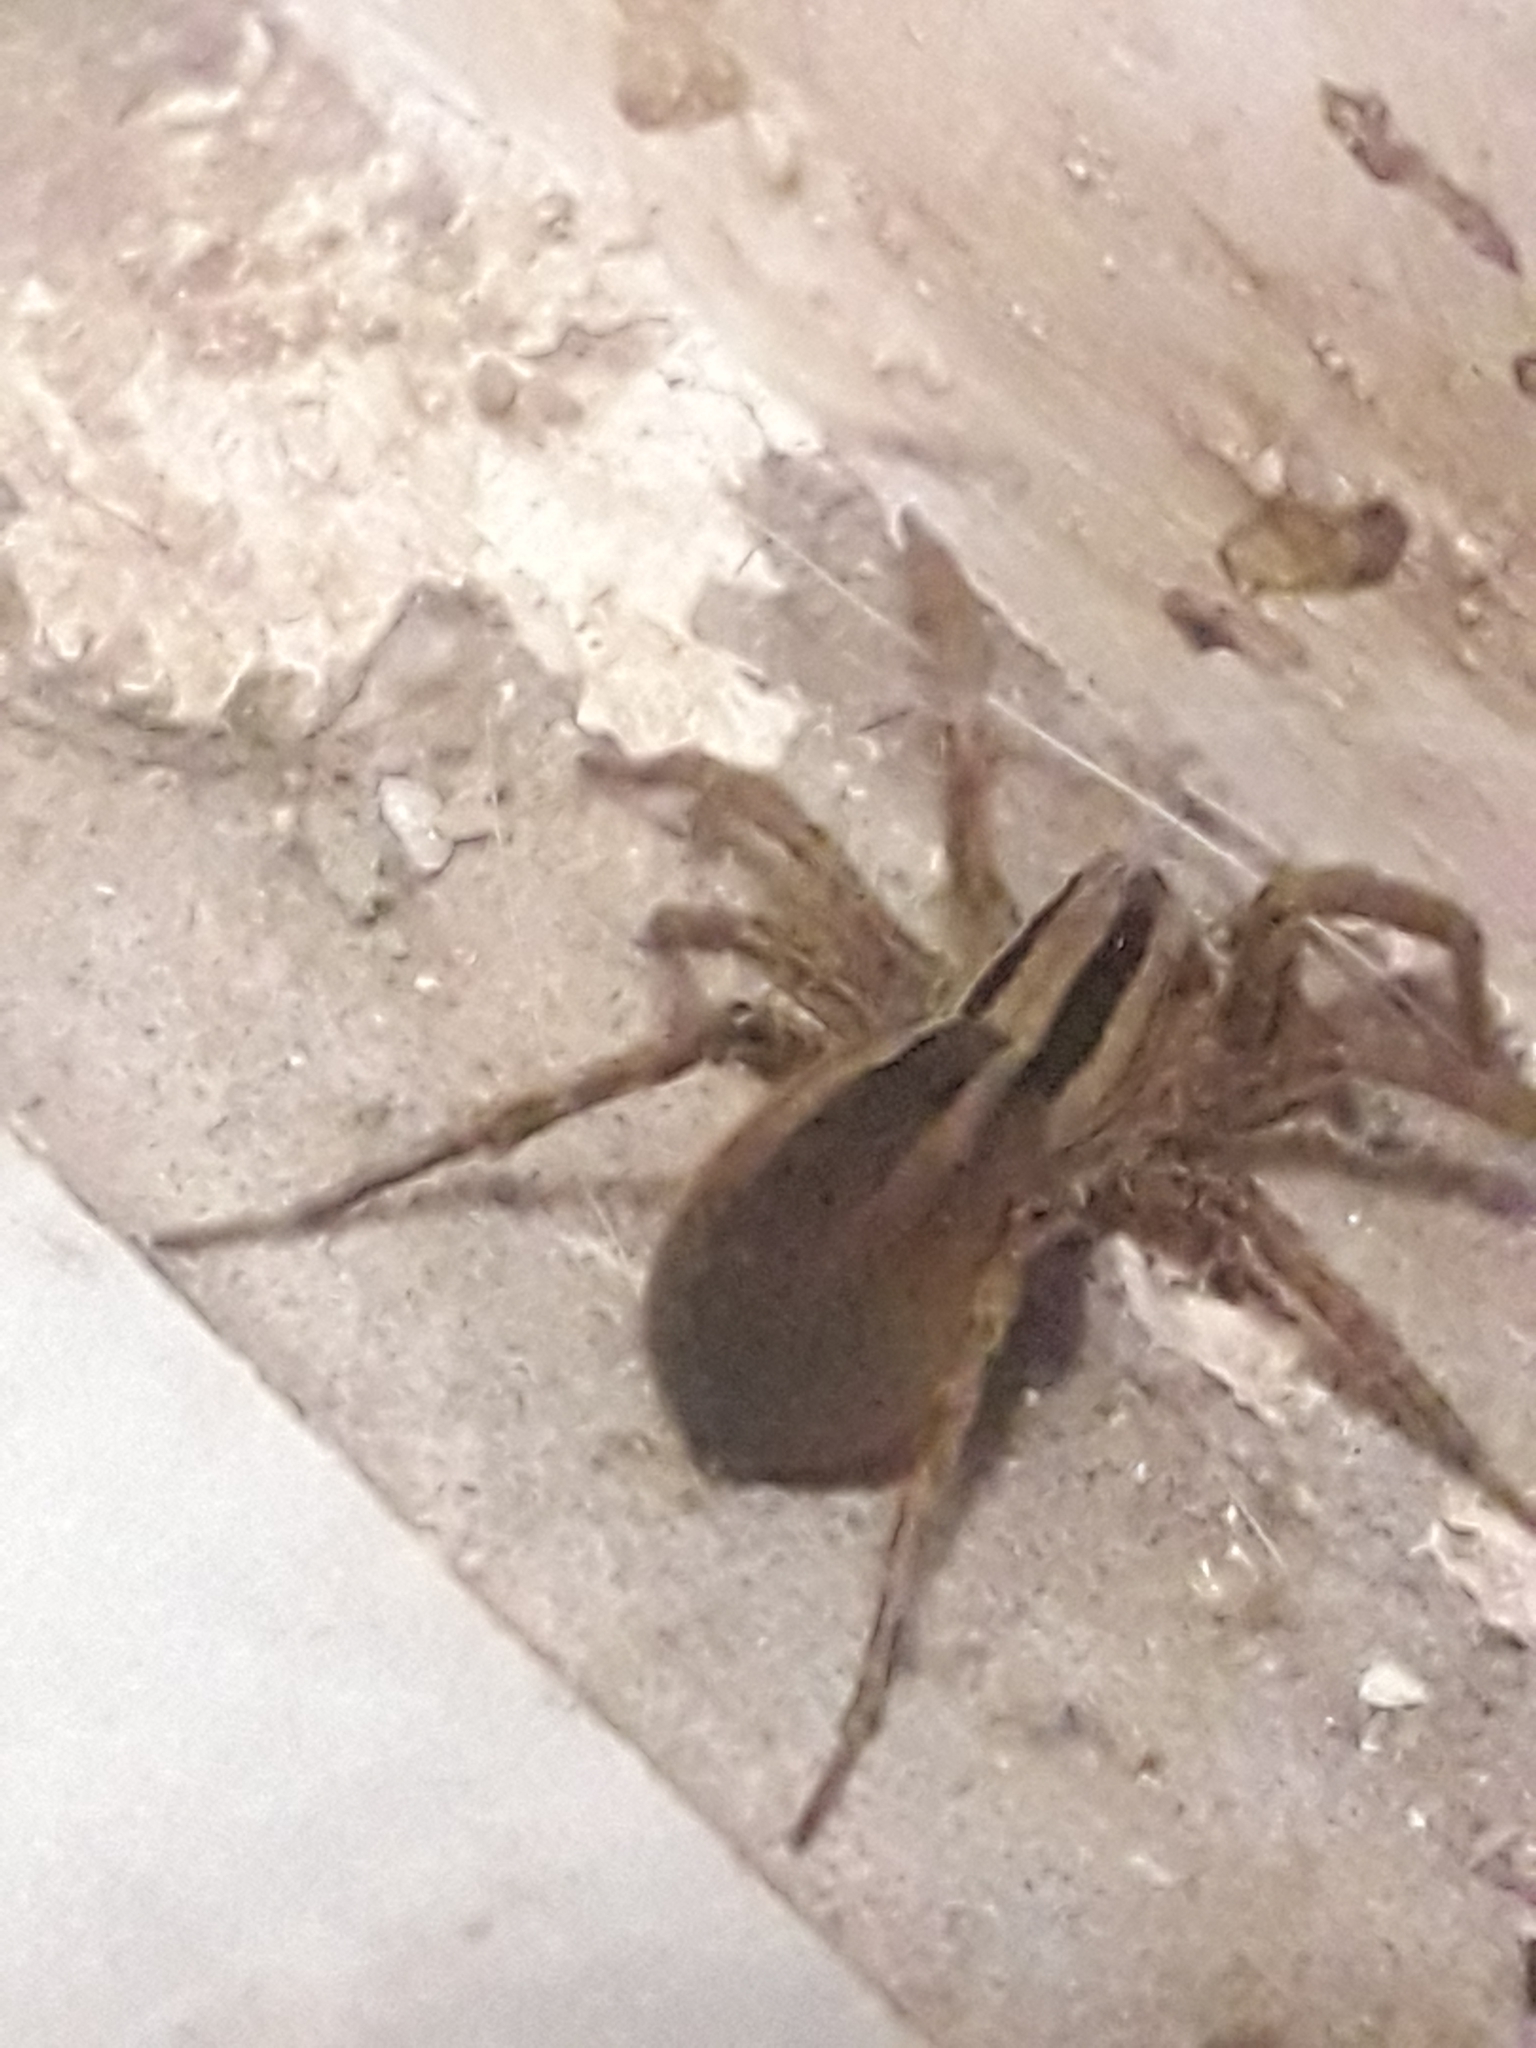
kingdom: Animalia
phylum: Arthropoda
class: Arachnida
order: Araneae
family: Lycosidae
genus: Hogna
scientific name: Hogna bivittata
